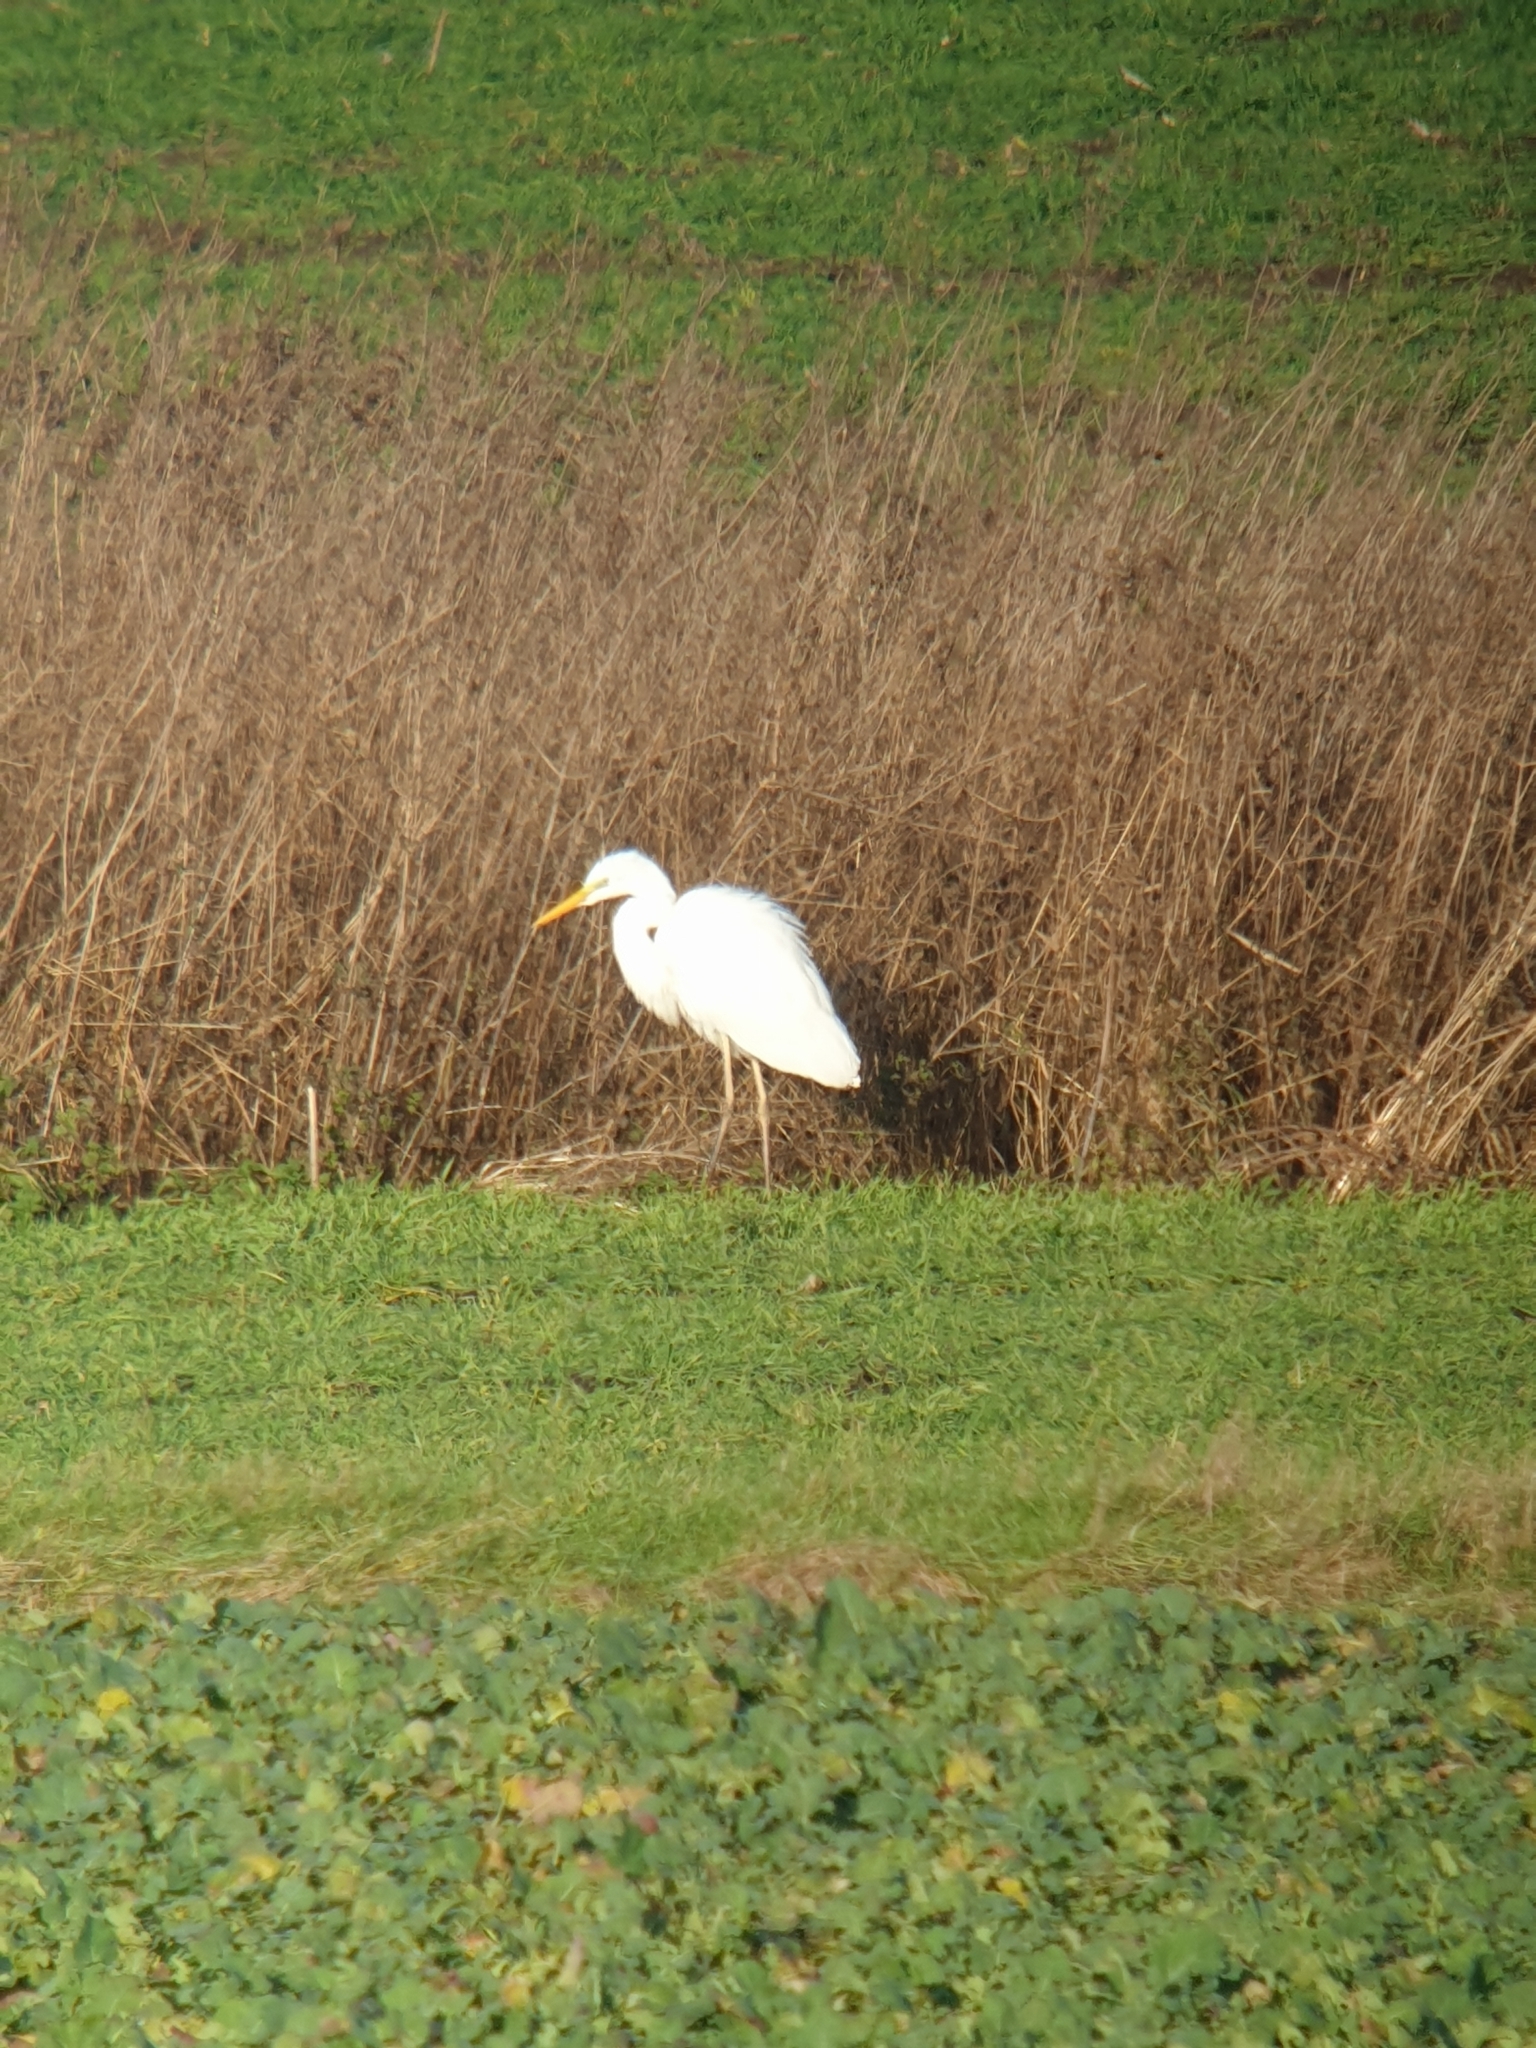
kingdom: Animalia
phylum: Chordata
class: Aves
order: Pelecaniformes
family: Ardeidae
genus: Ardea
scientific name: Ardea alba
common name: Great egret
